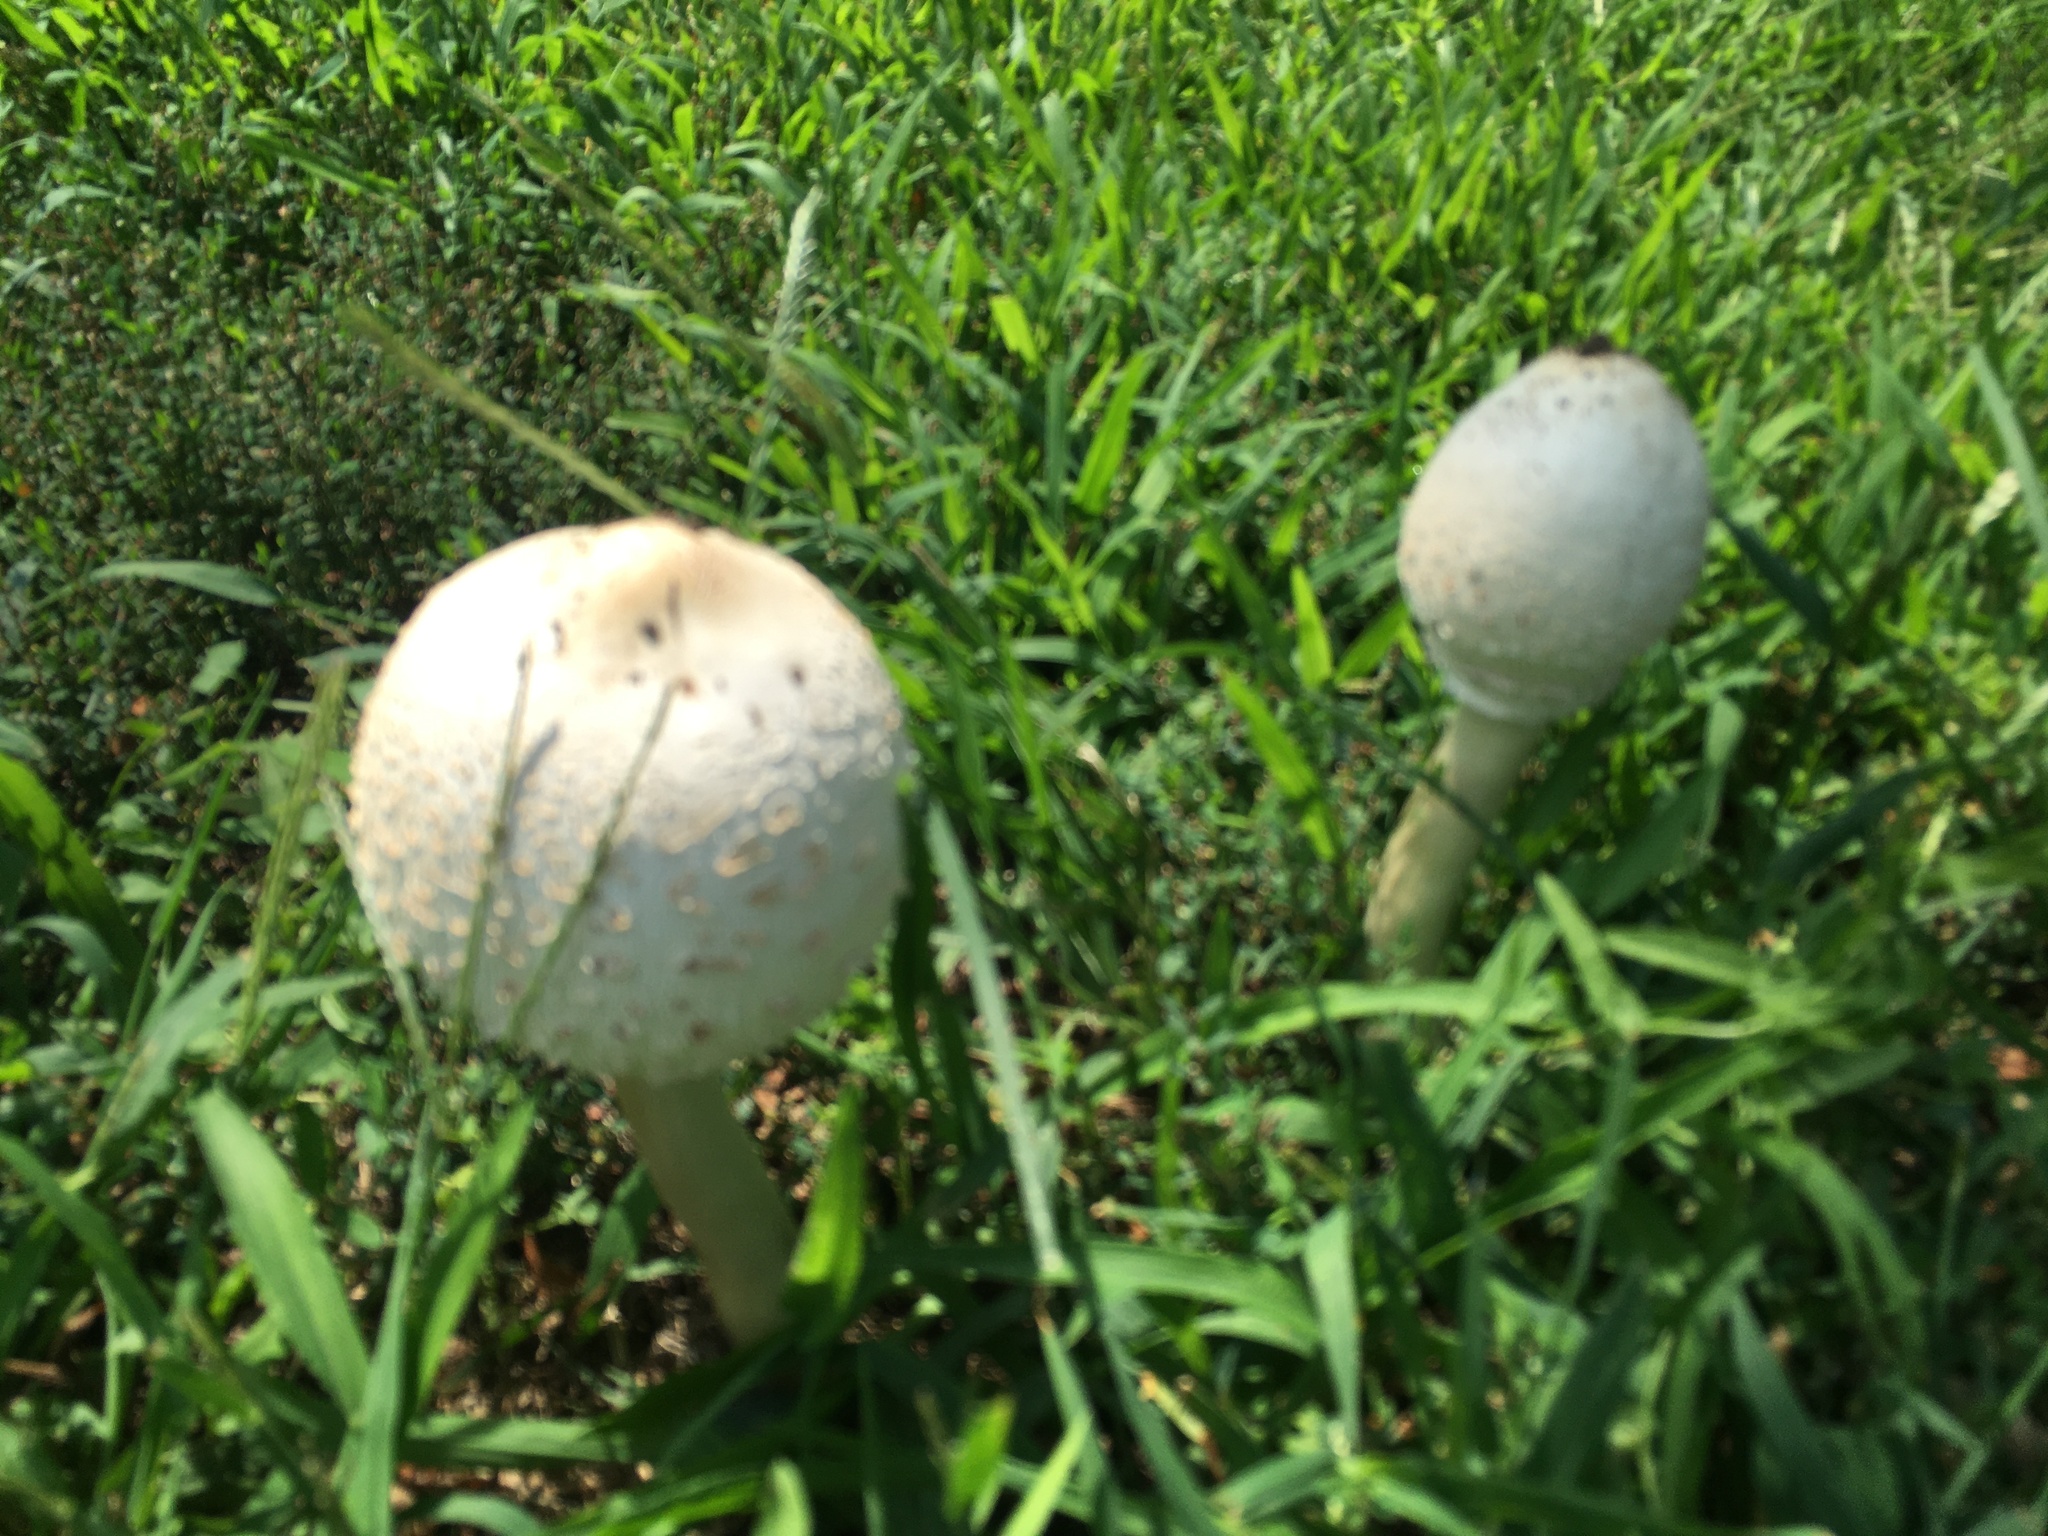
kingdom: Fungi
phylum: Basidiomycota
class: Agaricomycetes
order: Agaricales
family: Agaricaceae
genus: Chlorophyllum
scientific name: Chlorophyllum molybdites
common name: False parasol
